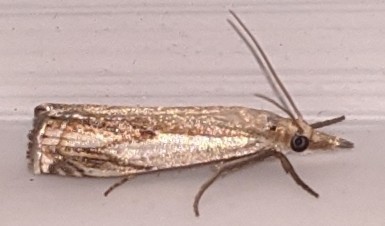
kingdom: Animalia
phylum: Arthropoda
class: Insecta
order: Lepidoptera
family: Crambidae
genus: Crambus
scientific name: Crambus agitatellus
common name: Double-banded grass-veneer
